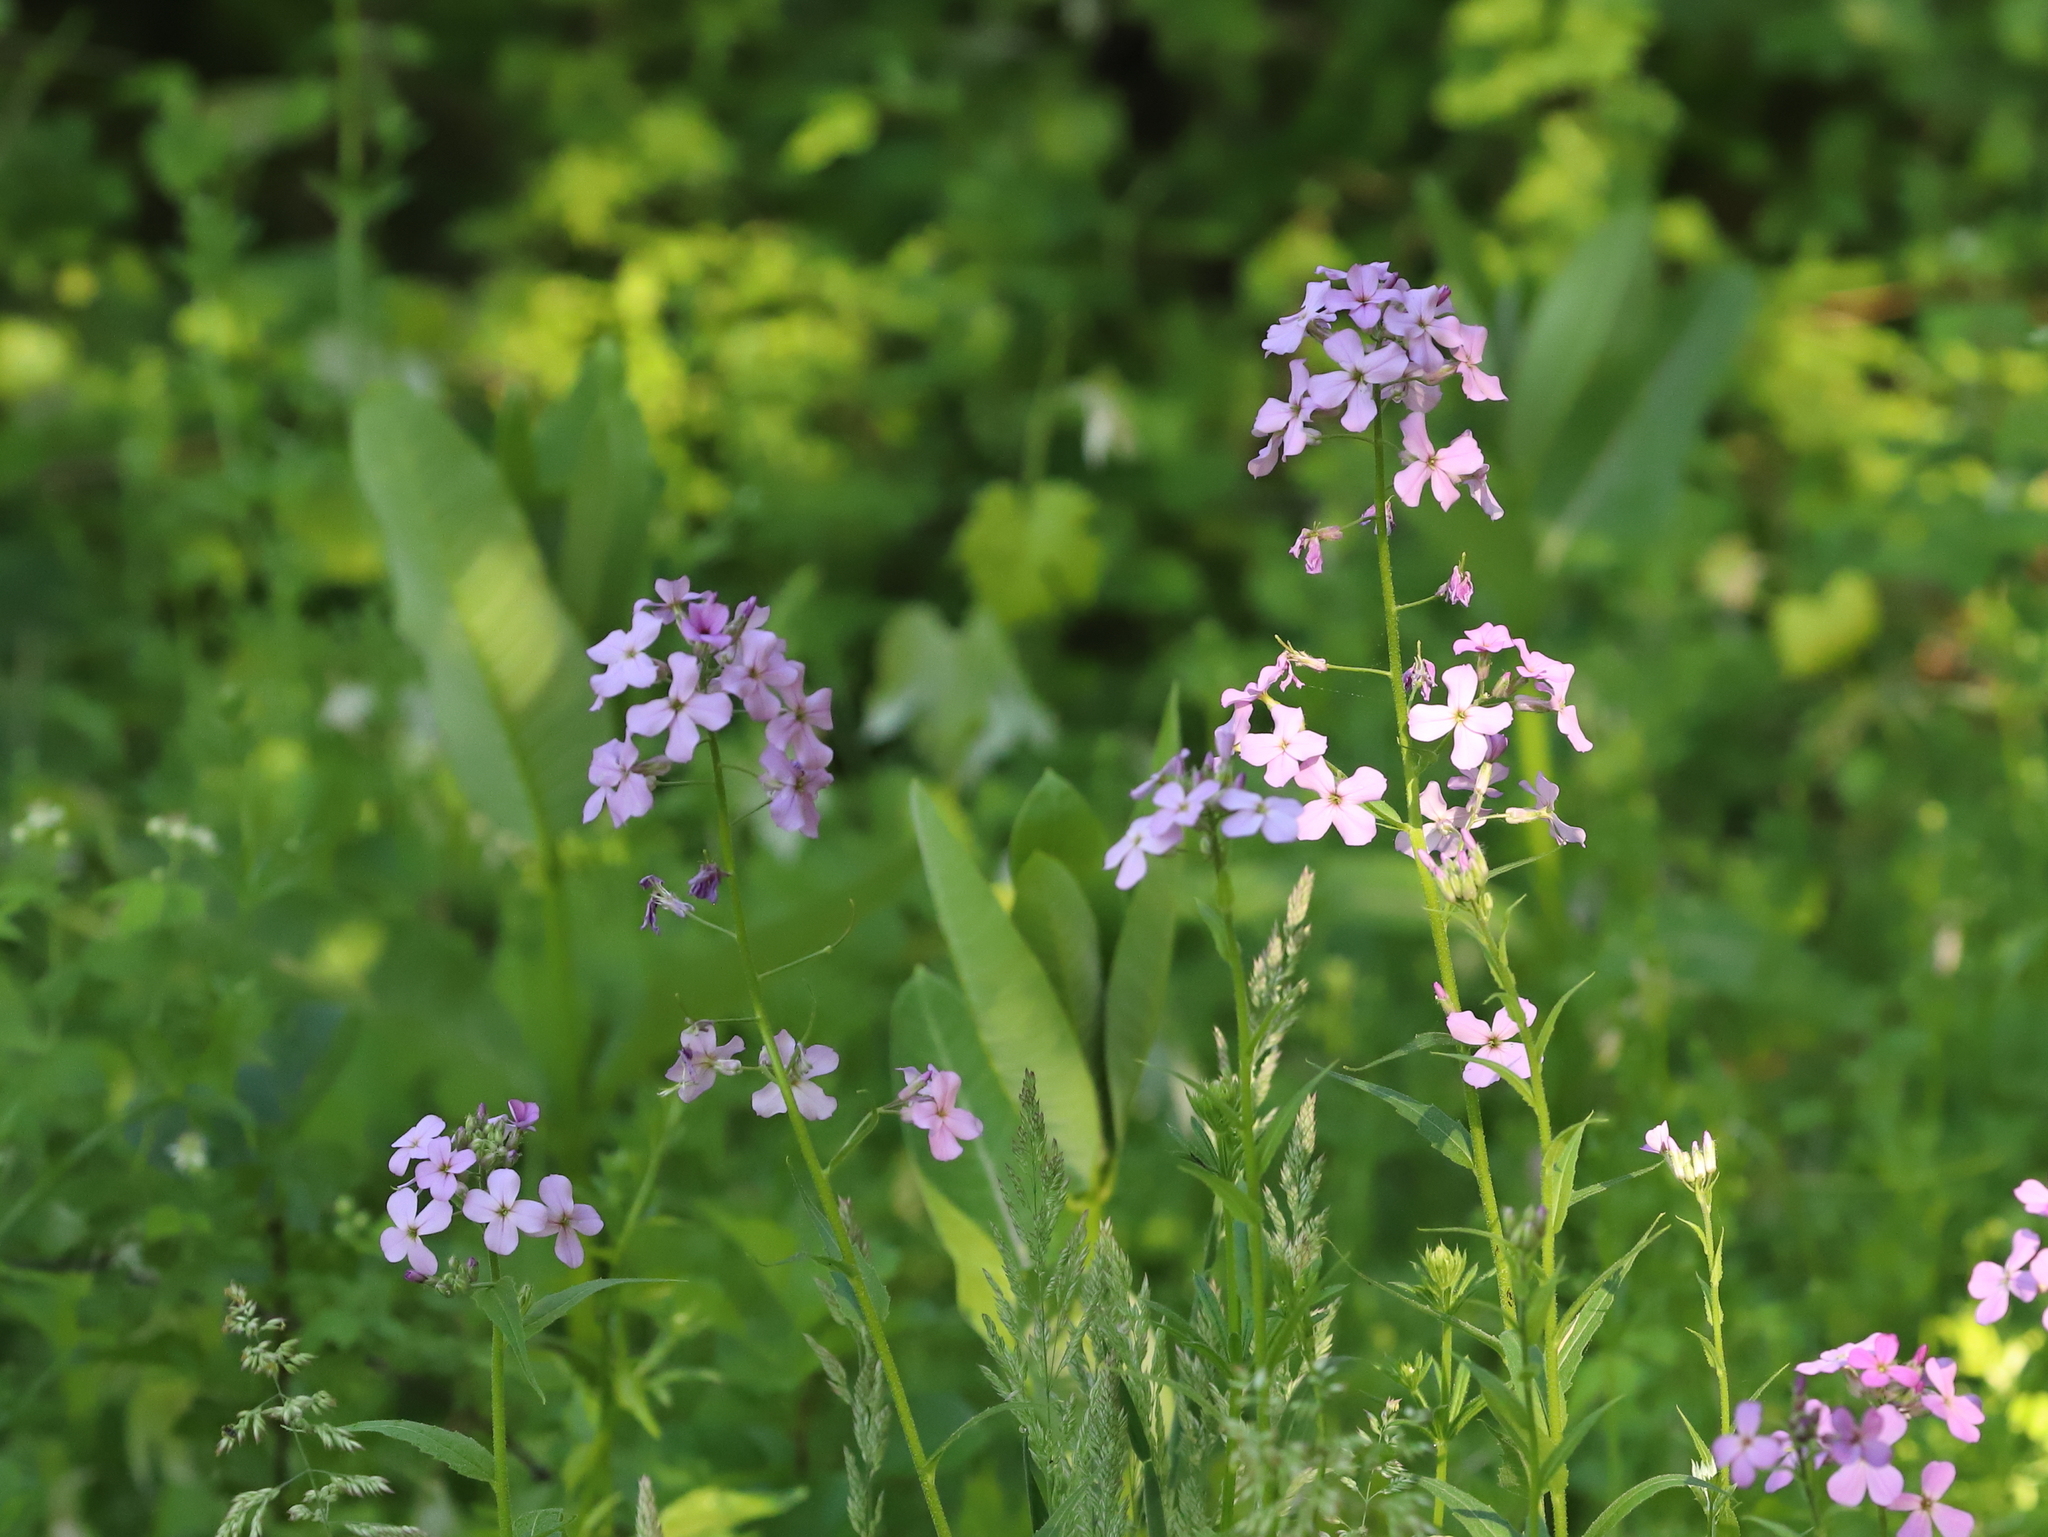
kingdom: Plantae
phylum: Tracheophyta
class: Magnoliopsida
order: Brassicales
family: Brassicaceae
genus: Hesperis
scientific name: Hesperis matronalis
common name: Dame's-violet
